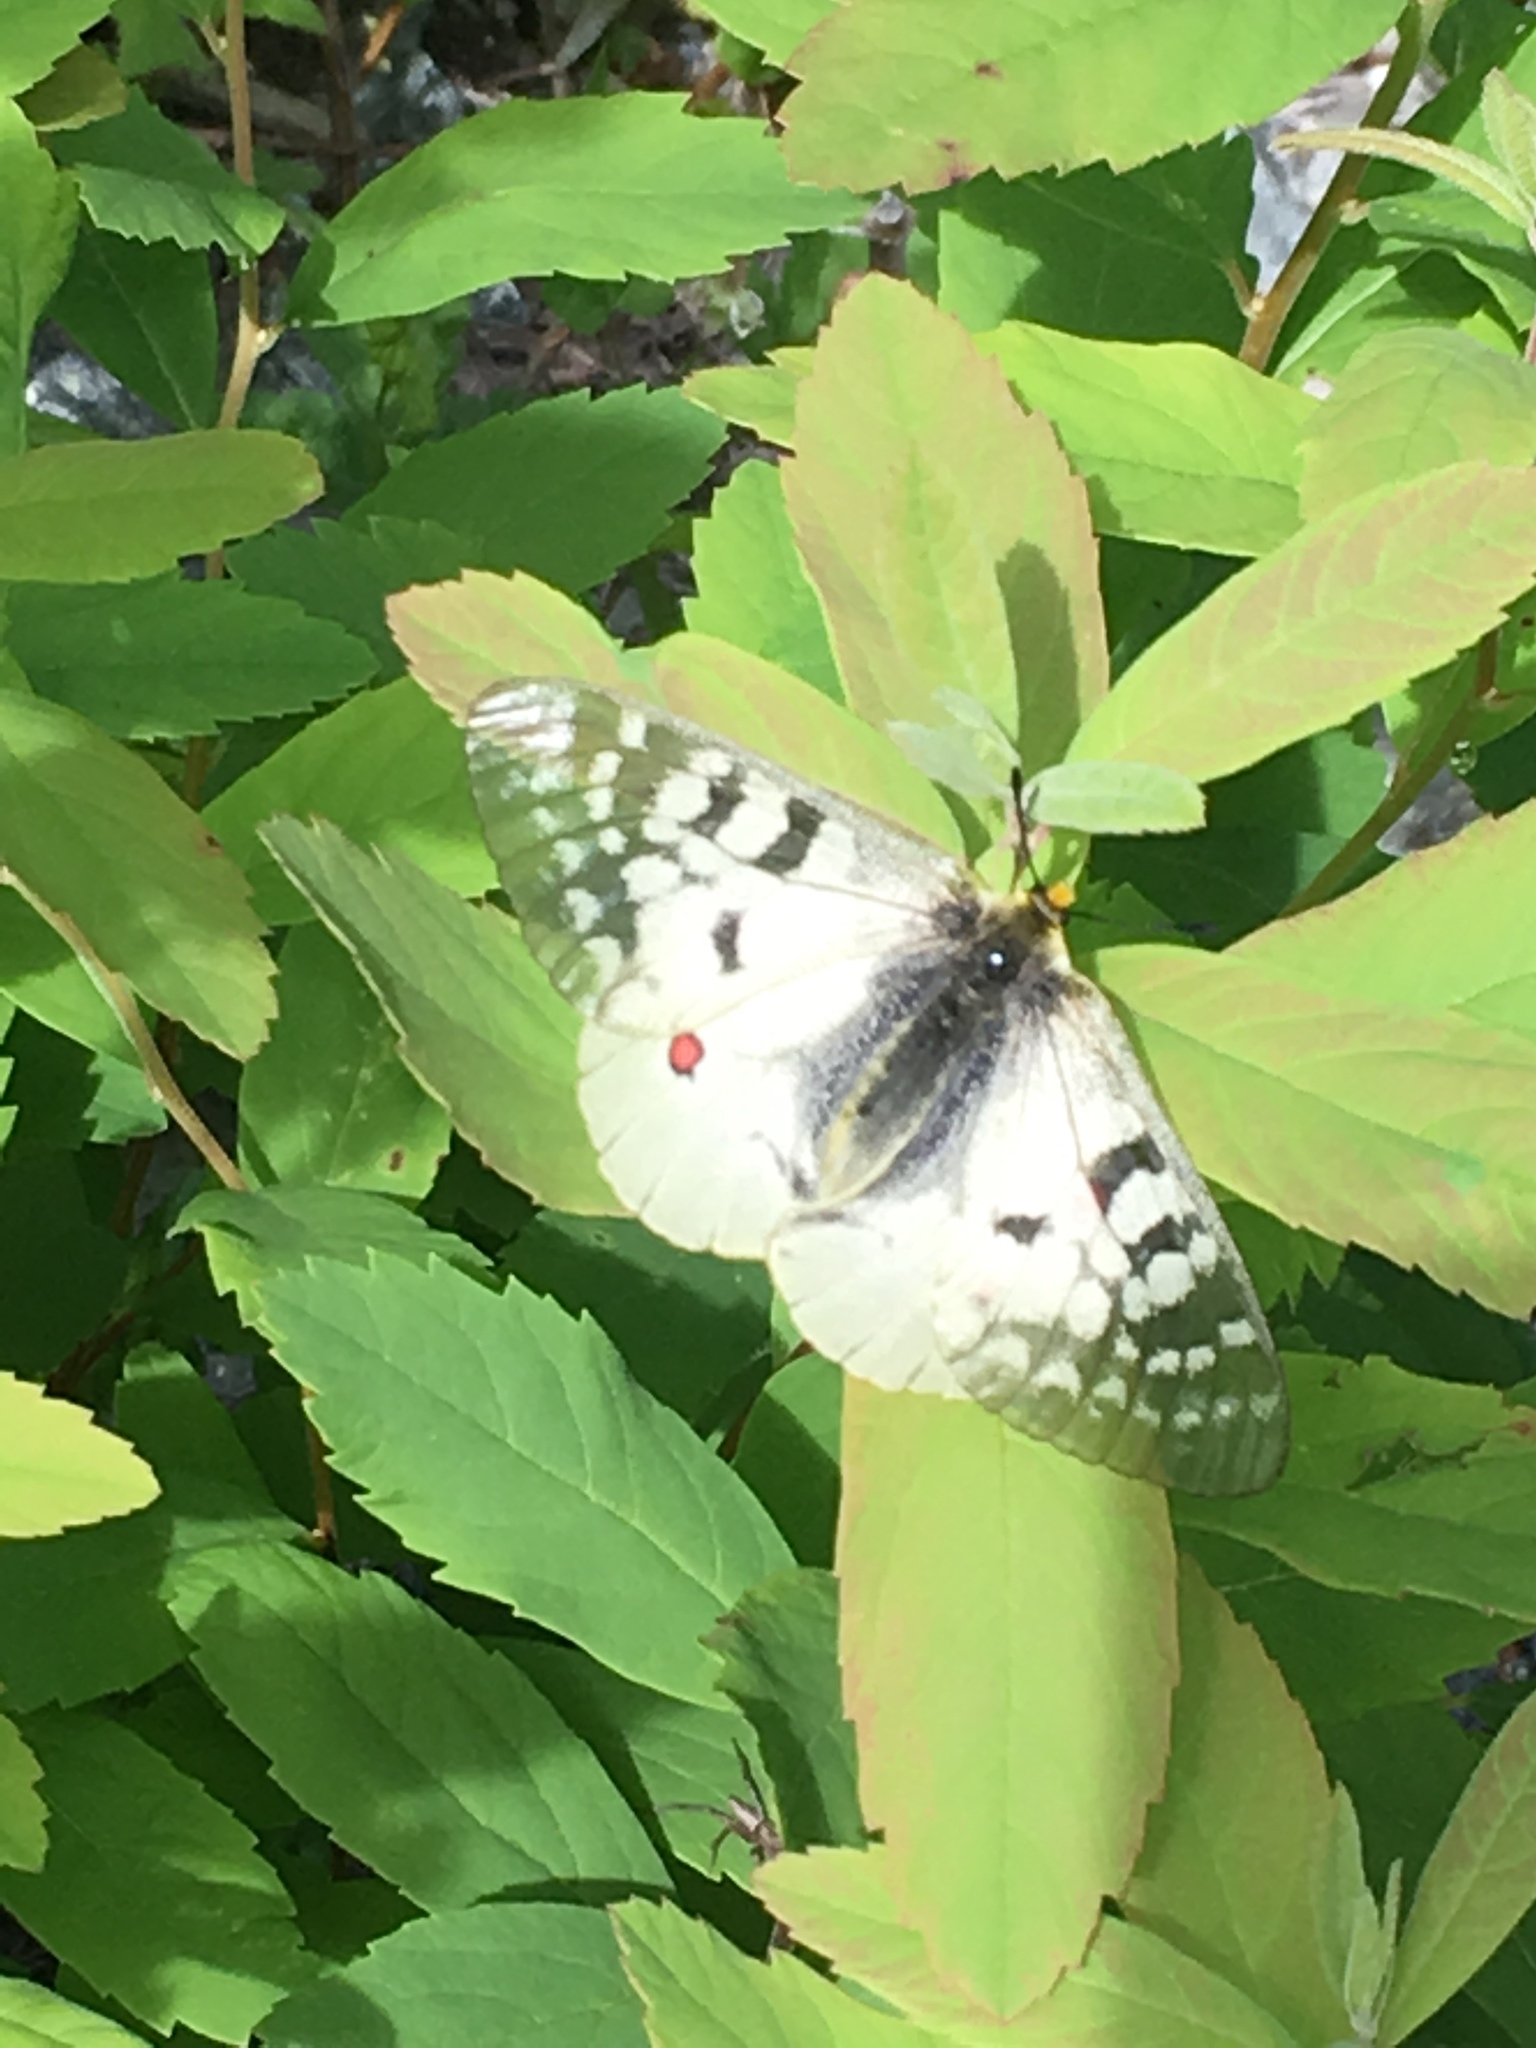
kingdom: Animalia
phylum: Arthropoda
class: Insecta
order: Lepidoptera
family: Papilionidae
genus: Parnassius
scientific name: Parnassius clodius
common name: American apollo
